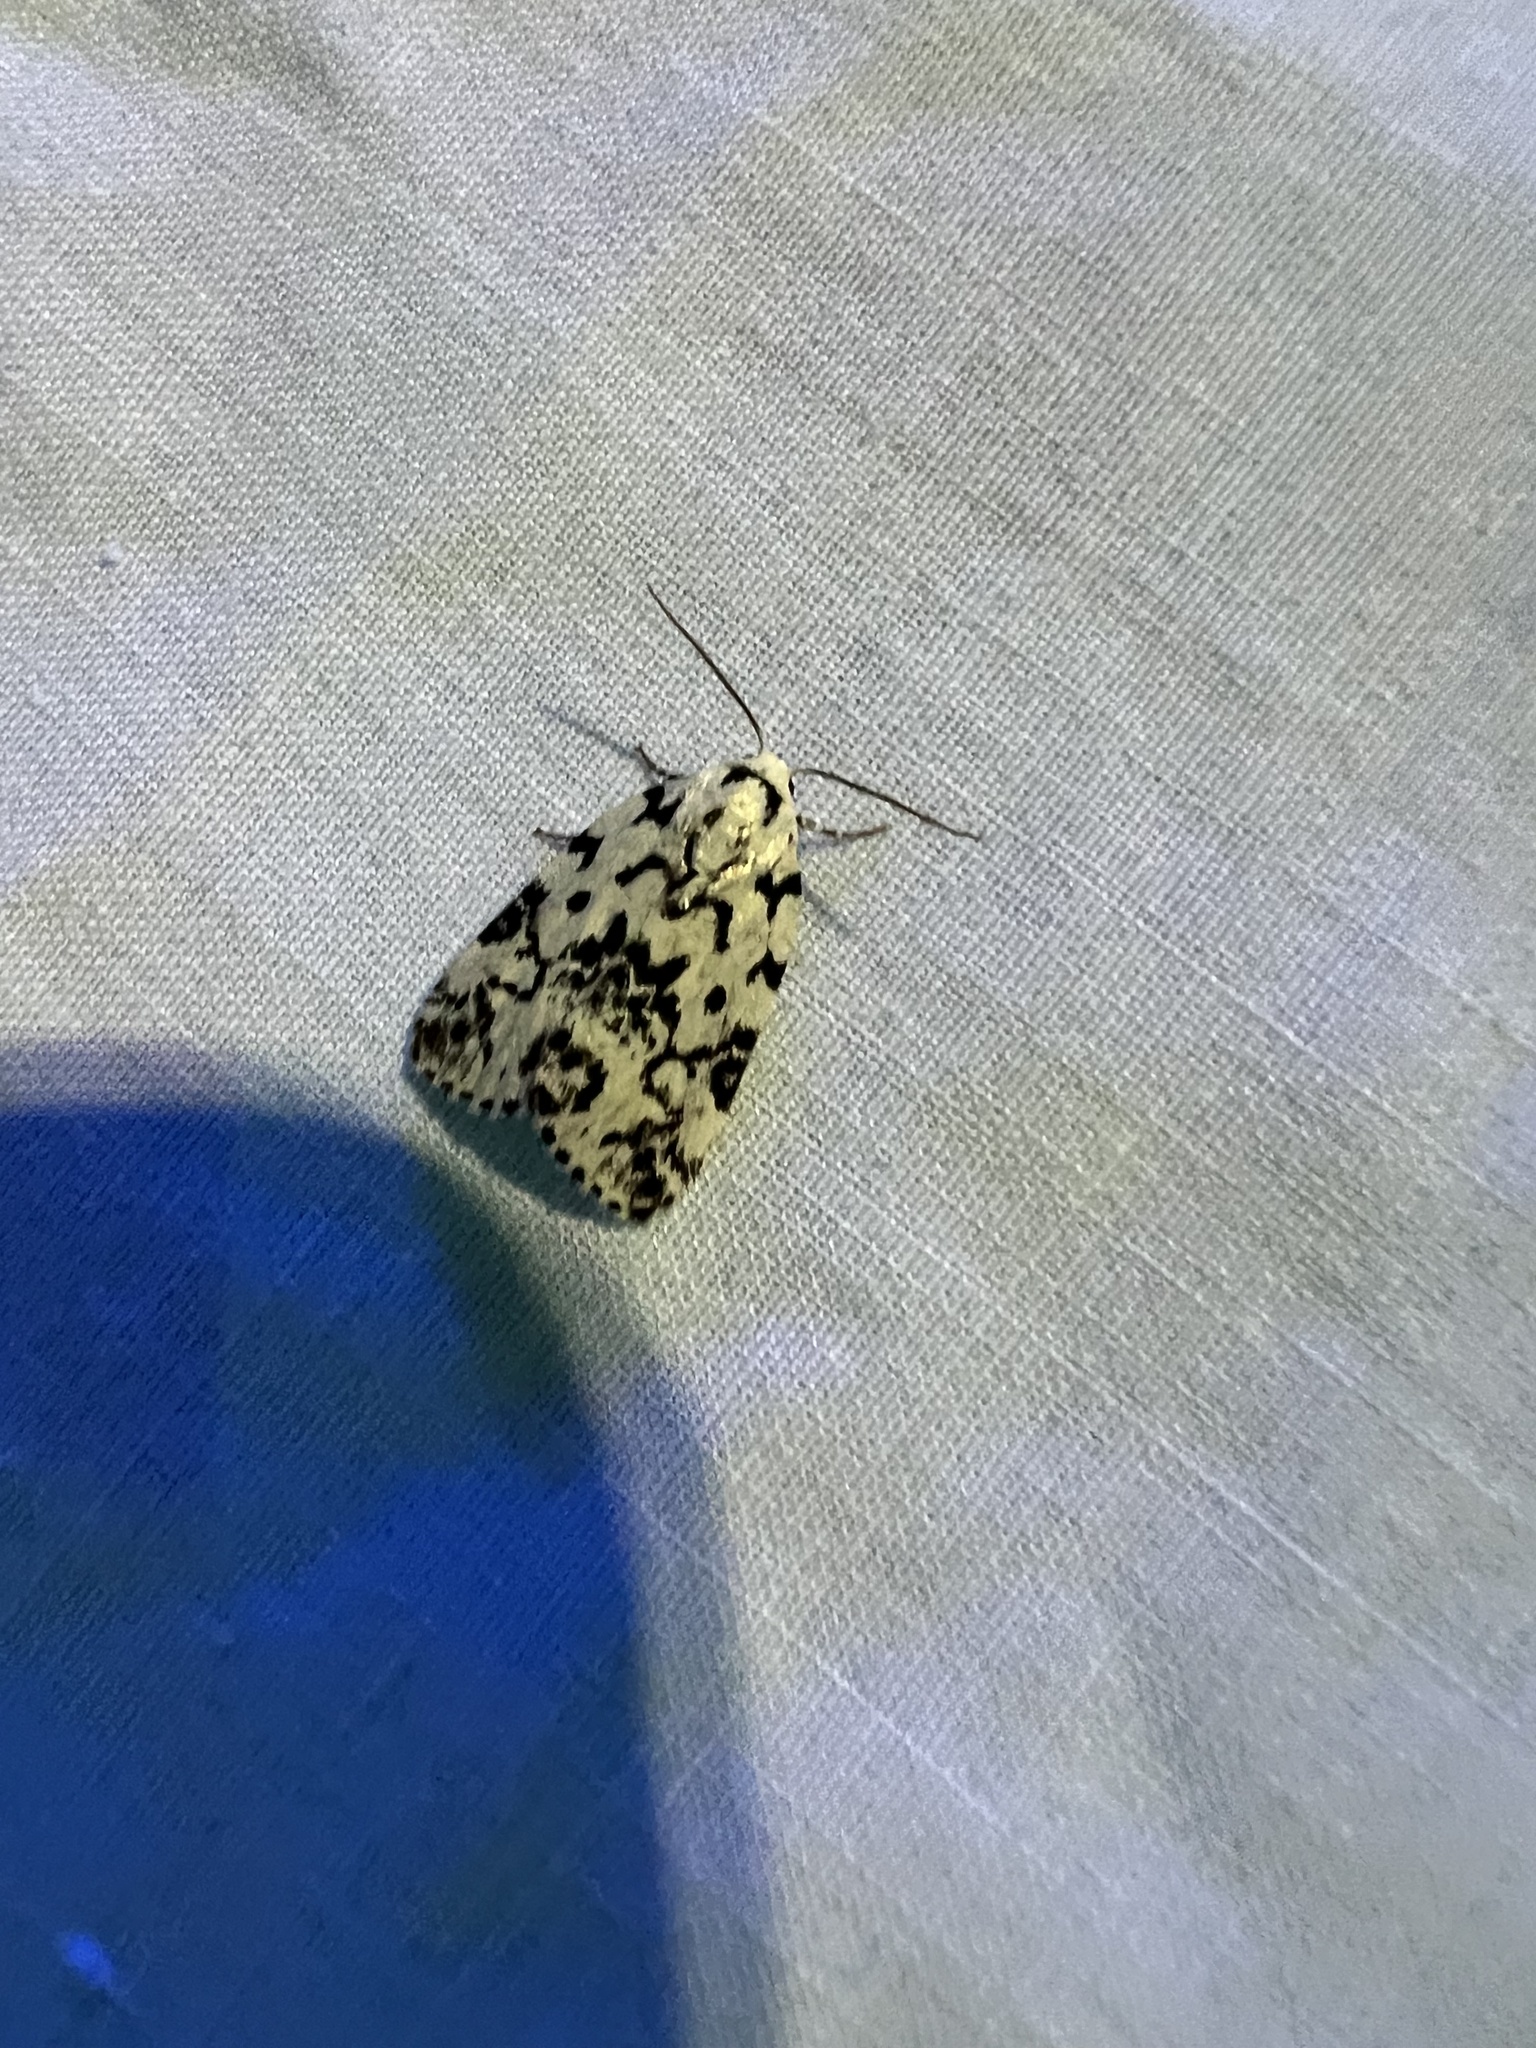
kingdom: Animalia
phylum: Arthropoda
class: Insecta
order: Lepidoptera
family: Noctuidae
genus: Polygrammate
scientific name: Polygrammate hebraeicum
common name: Hebrew moth
